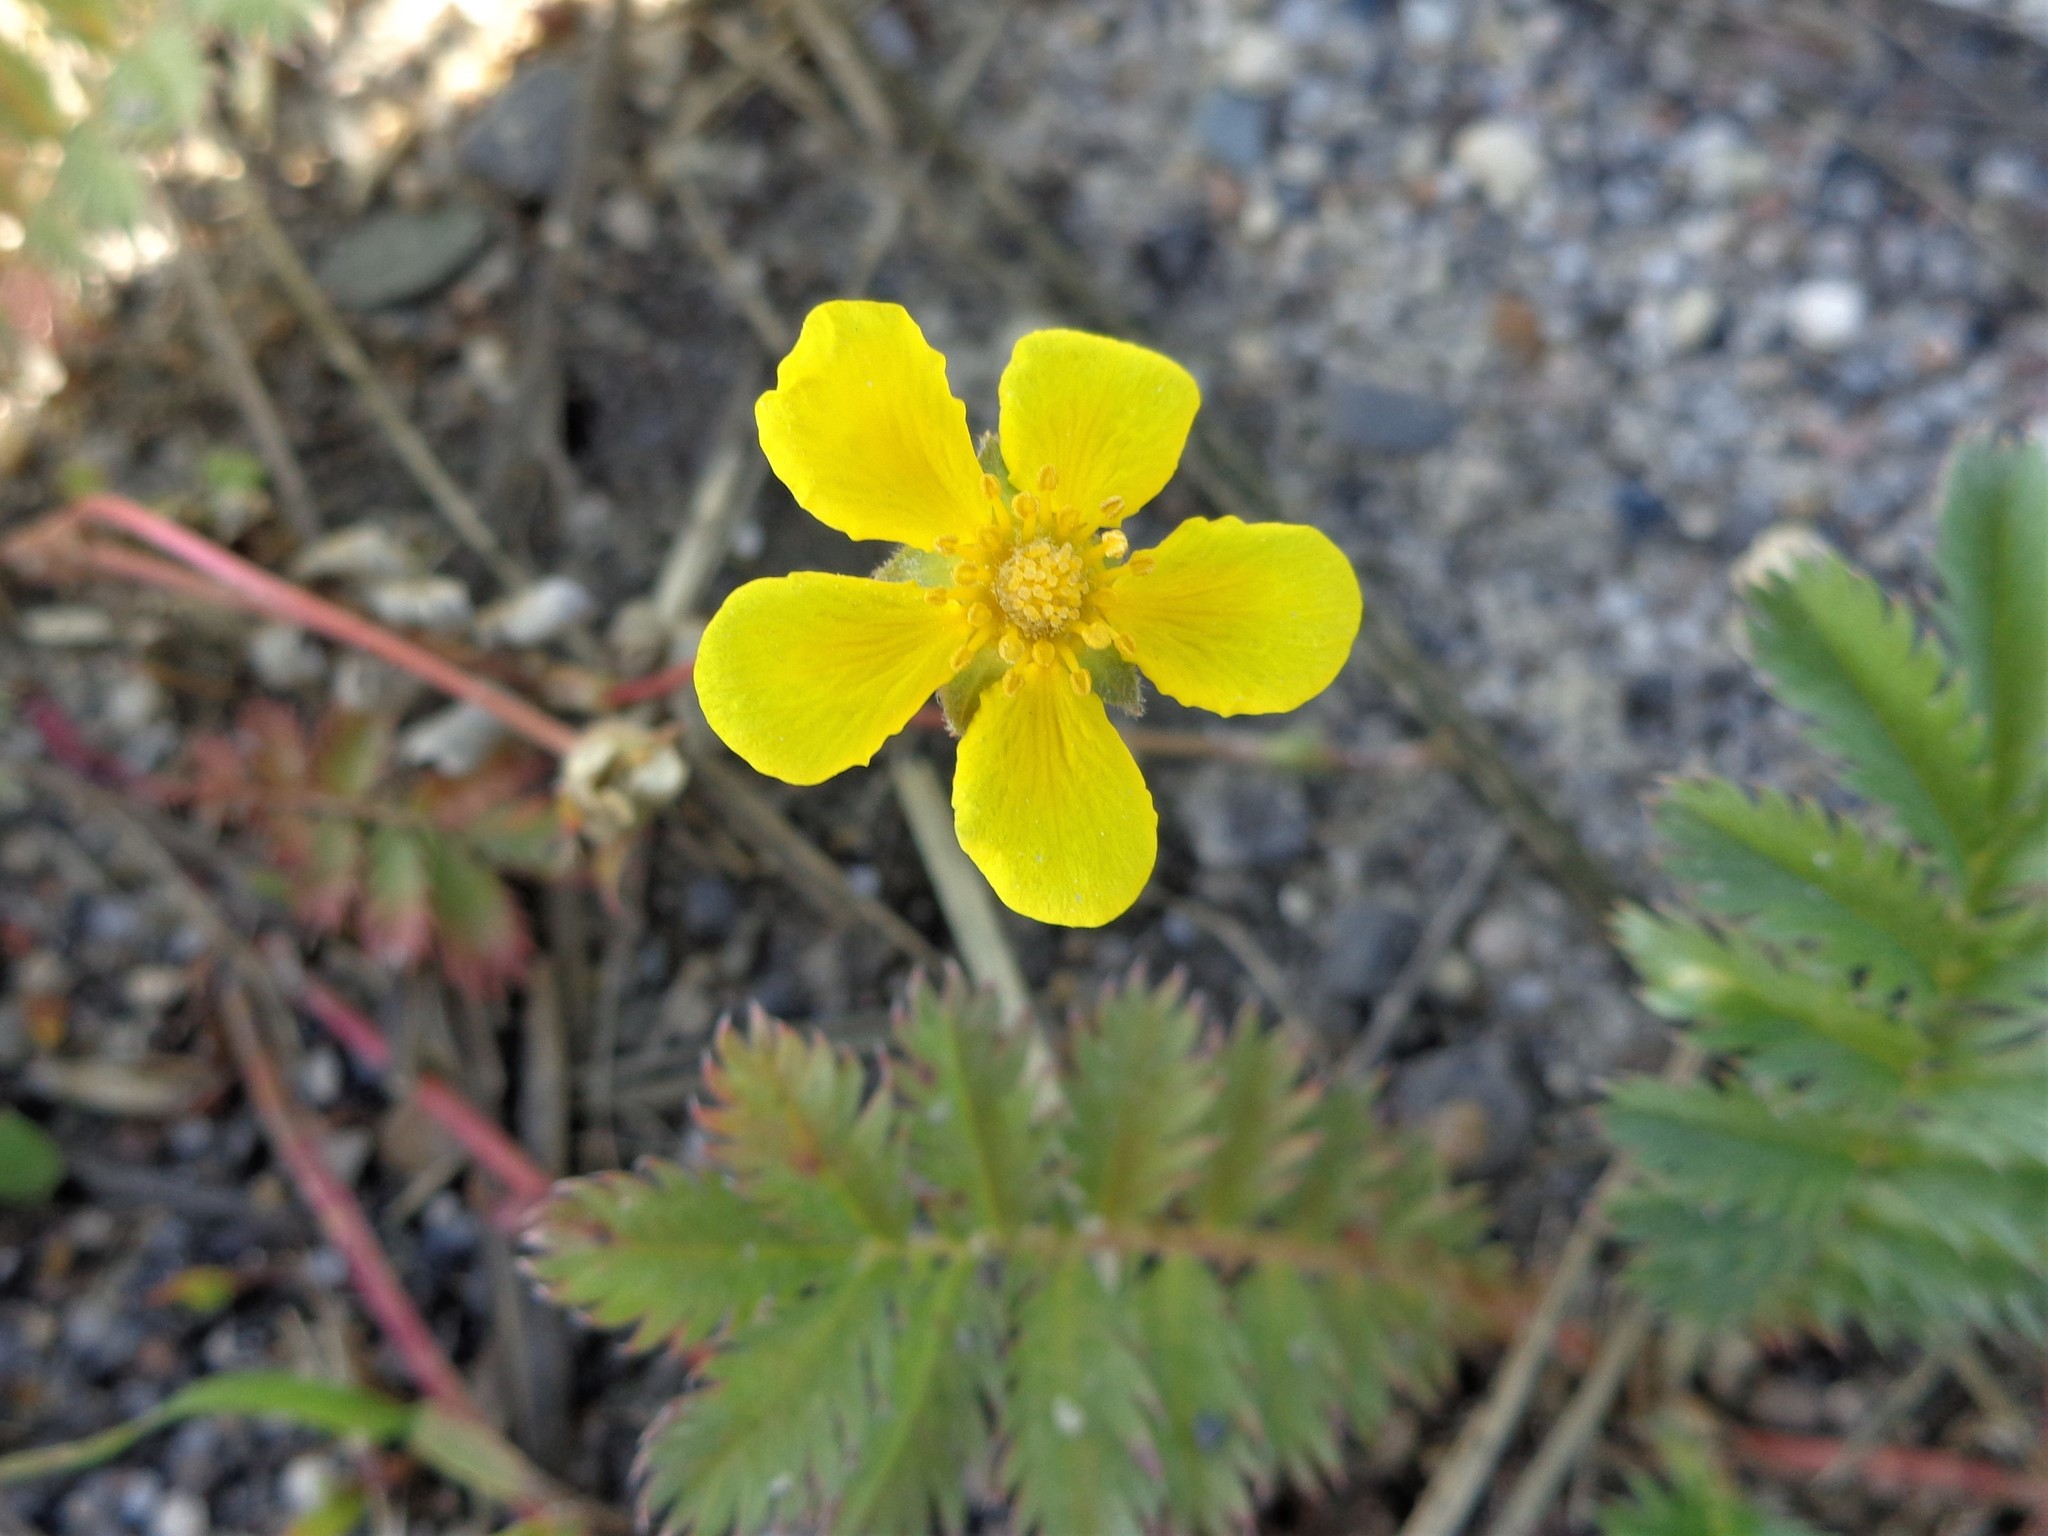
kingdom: Plantae
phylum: Tracheophyta
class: Magnoliopsida
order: Rosales
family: Rosaceae
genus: Argentina
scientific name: Argentina anserina
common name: Common silverweed
